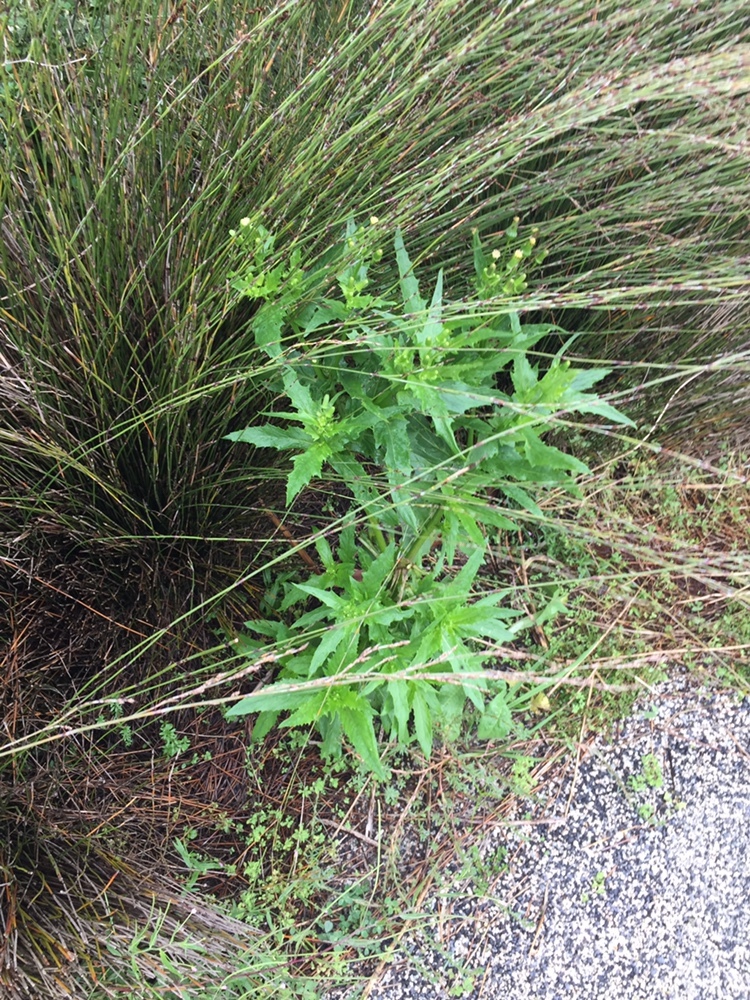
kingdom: Plantae
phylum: Tracheophyta
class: Magnoliopsida
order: Asterales
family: Asteraceae
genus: Erechtites
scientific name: Erechtites hieraciifolius
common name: American burnweed
